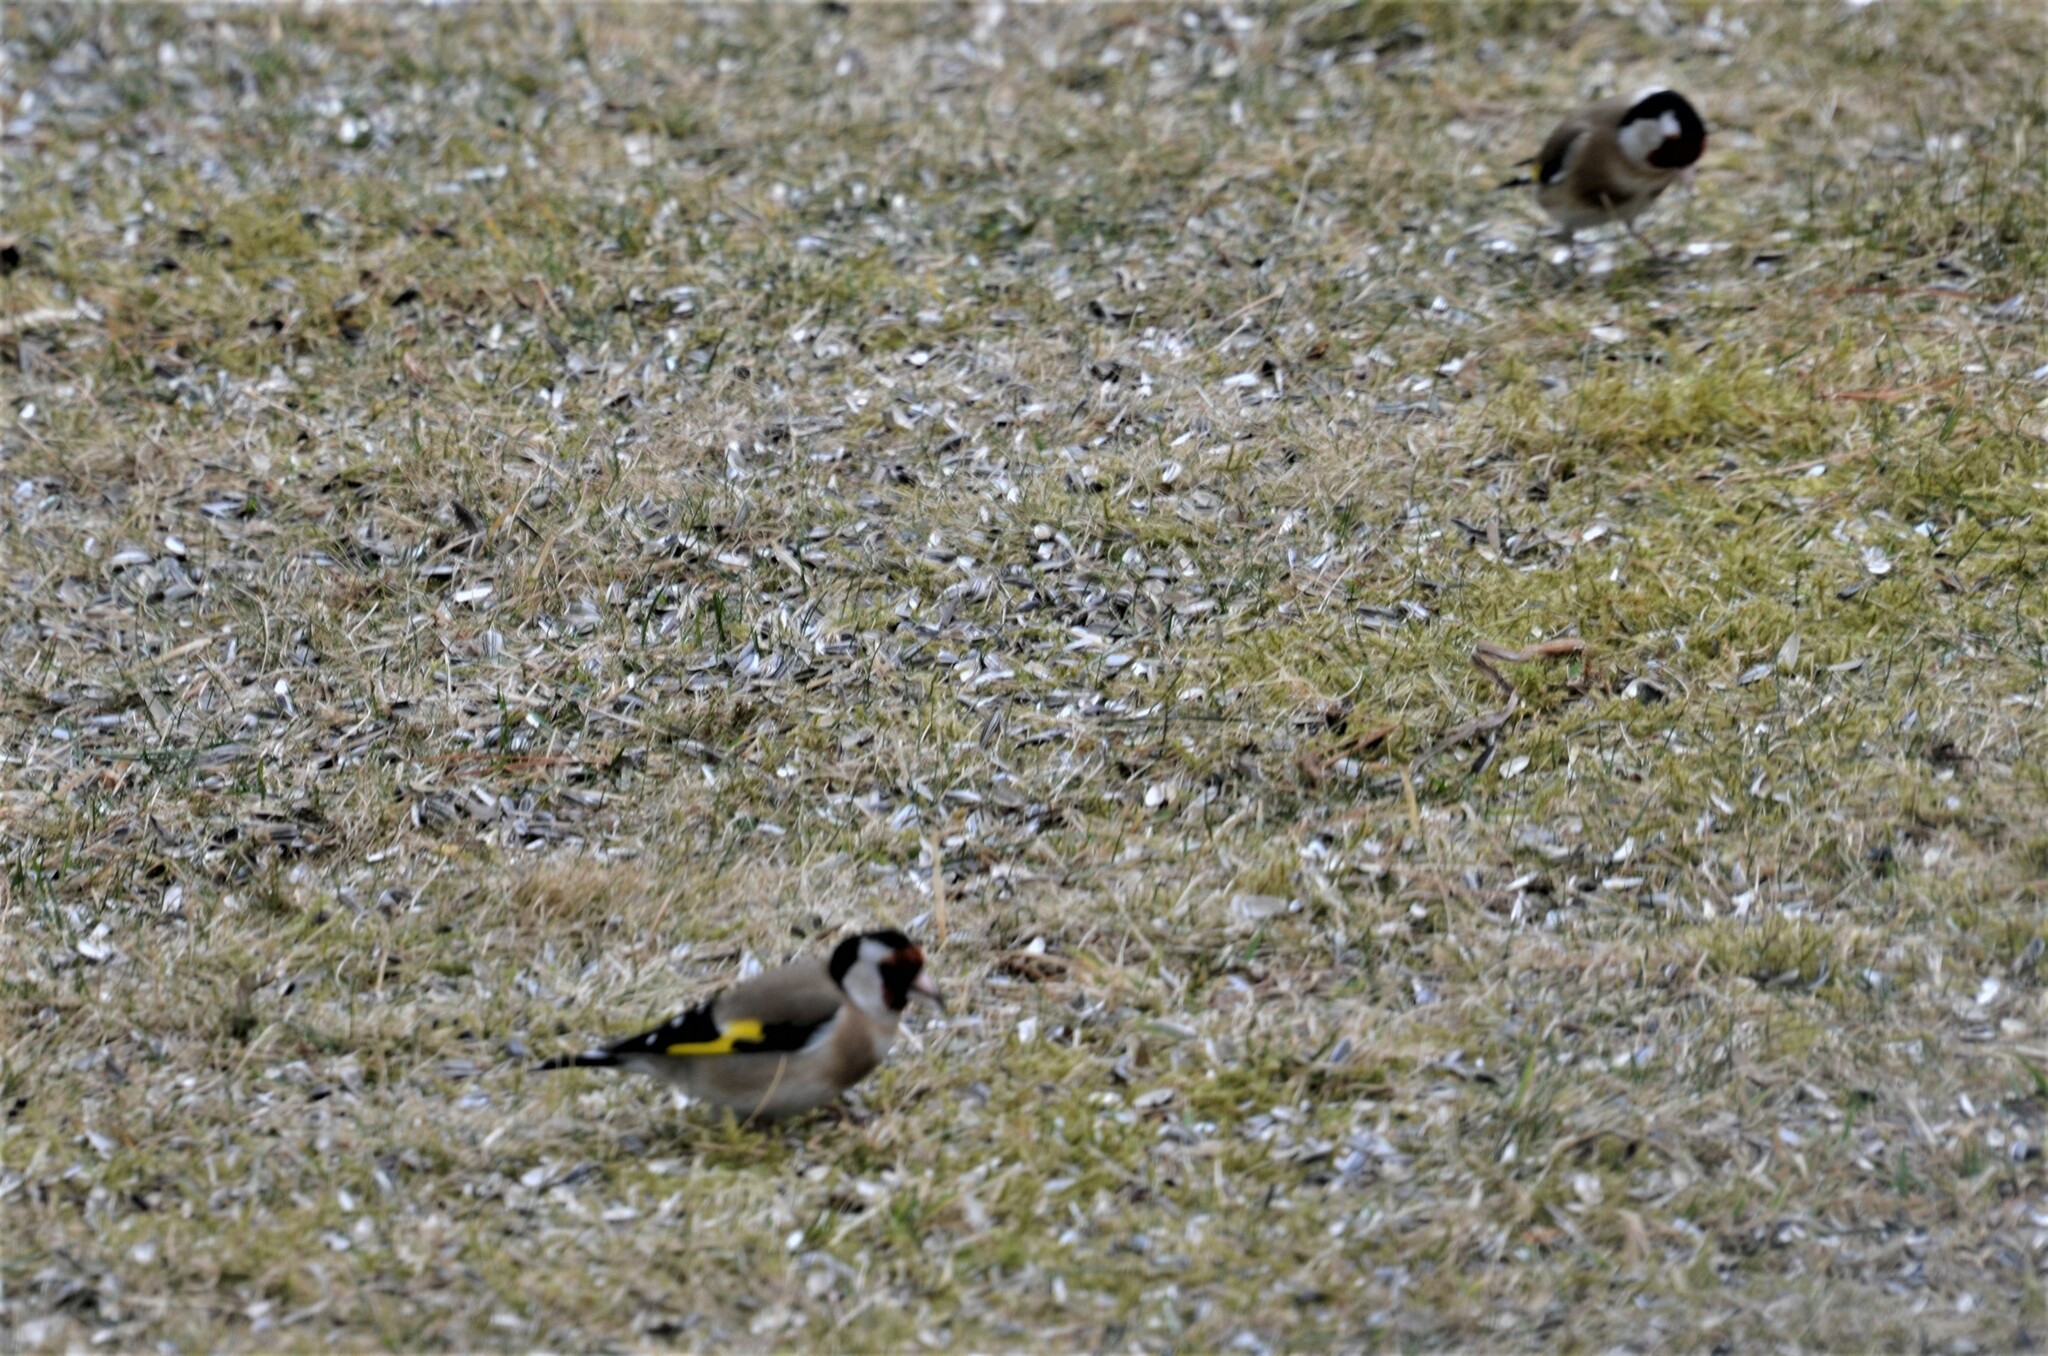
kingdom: Animalia
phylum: Chordata
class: Aves
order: Passeriformes
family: Fringillidae
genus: Carduelis
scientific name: Carduelis carduelis
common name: European goldfinch
